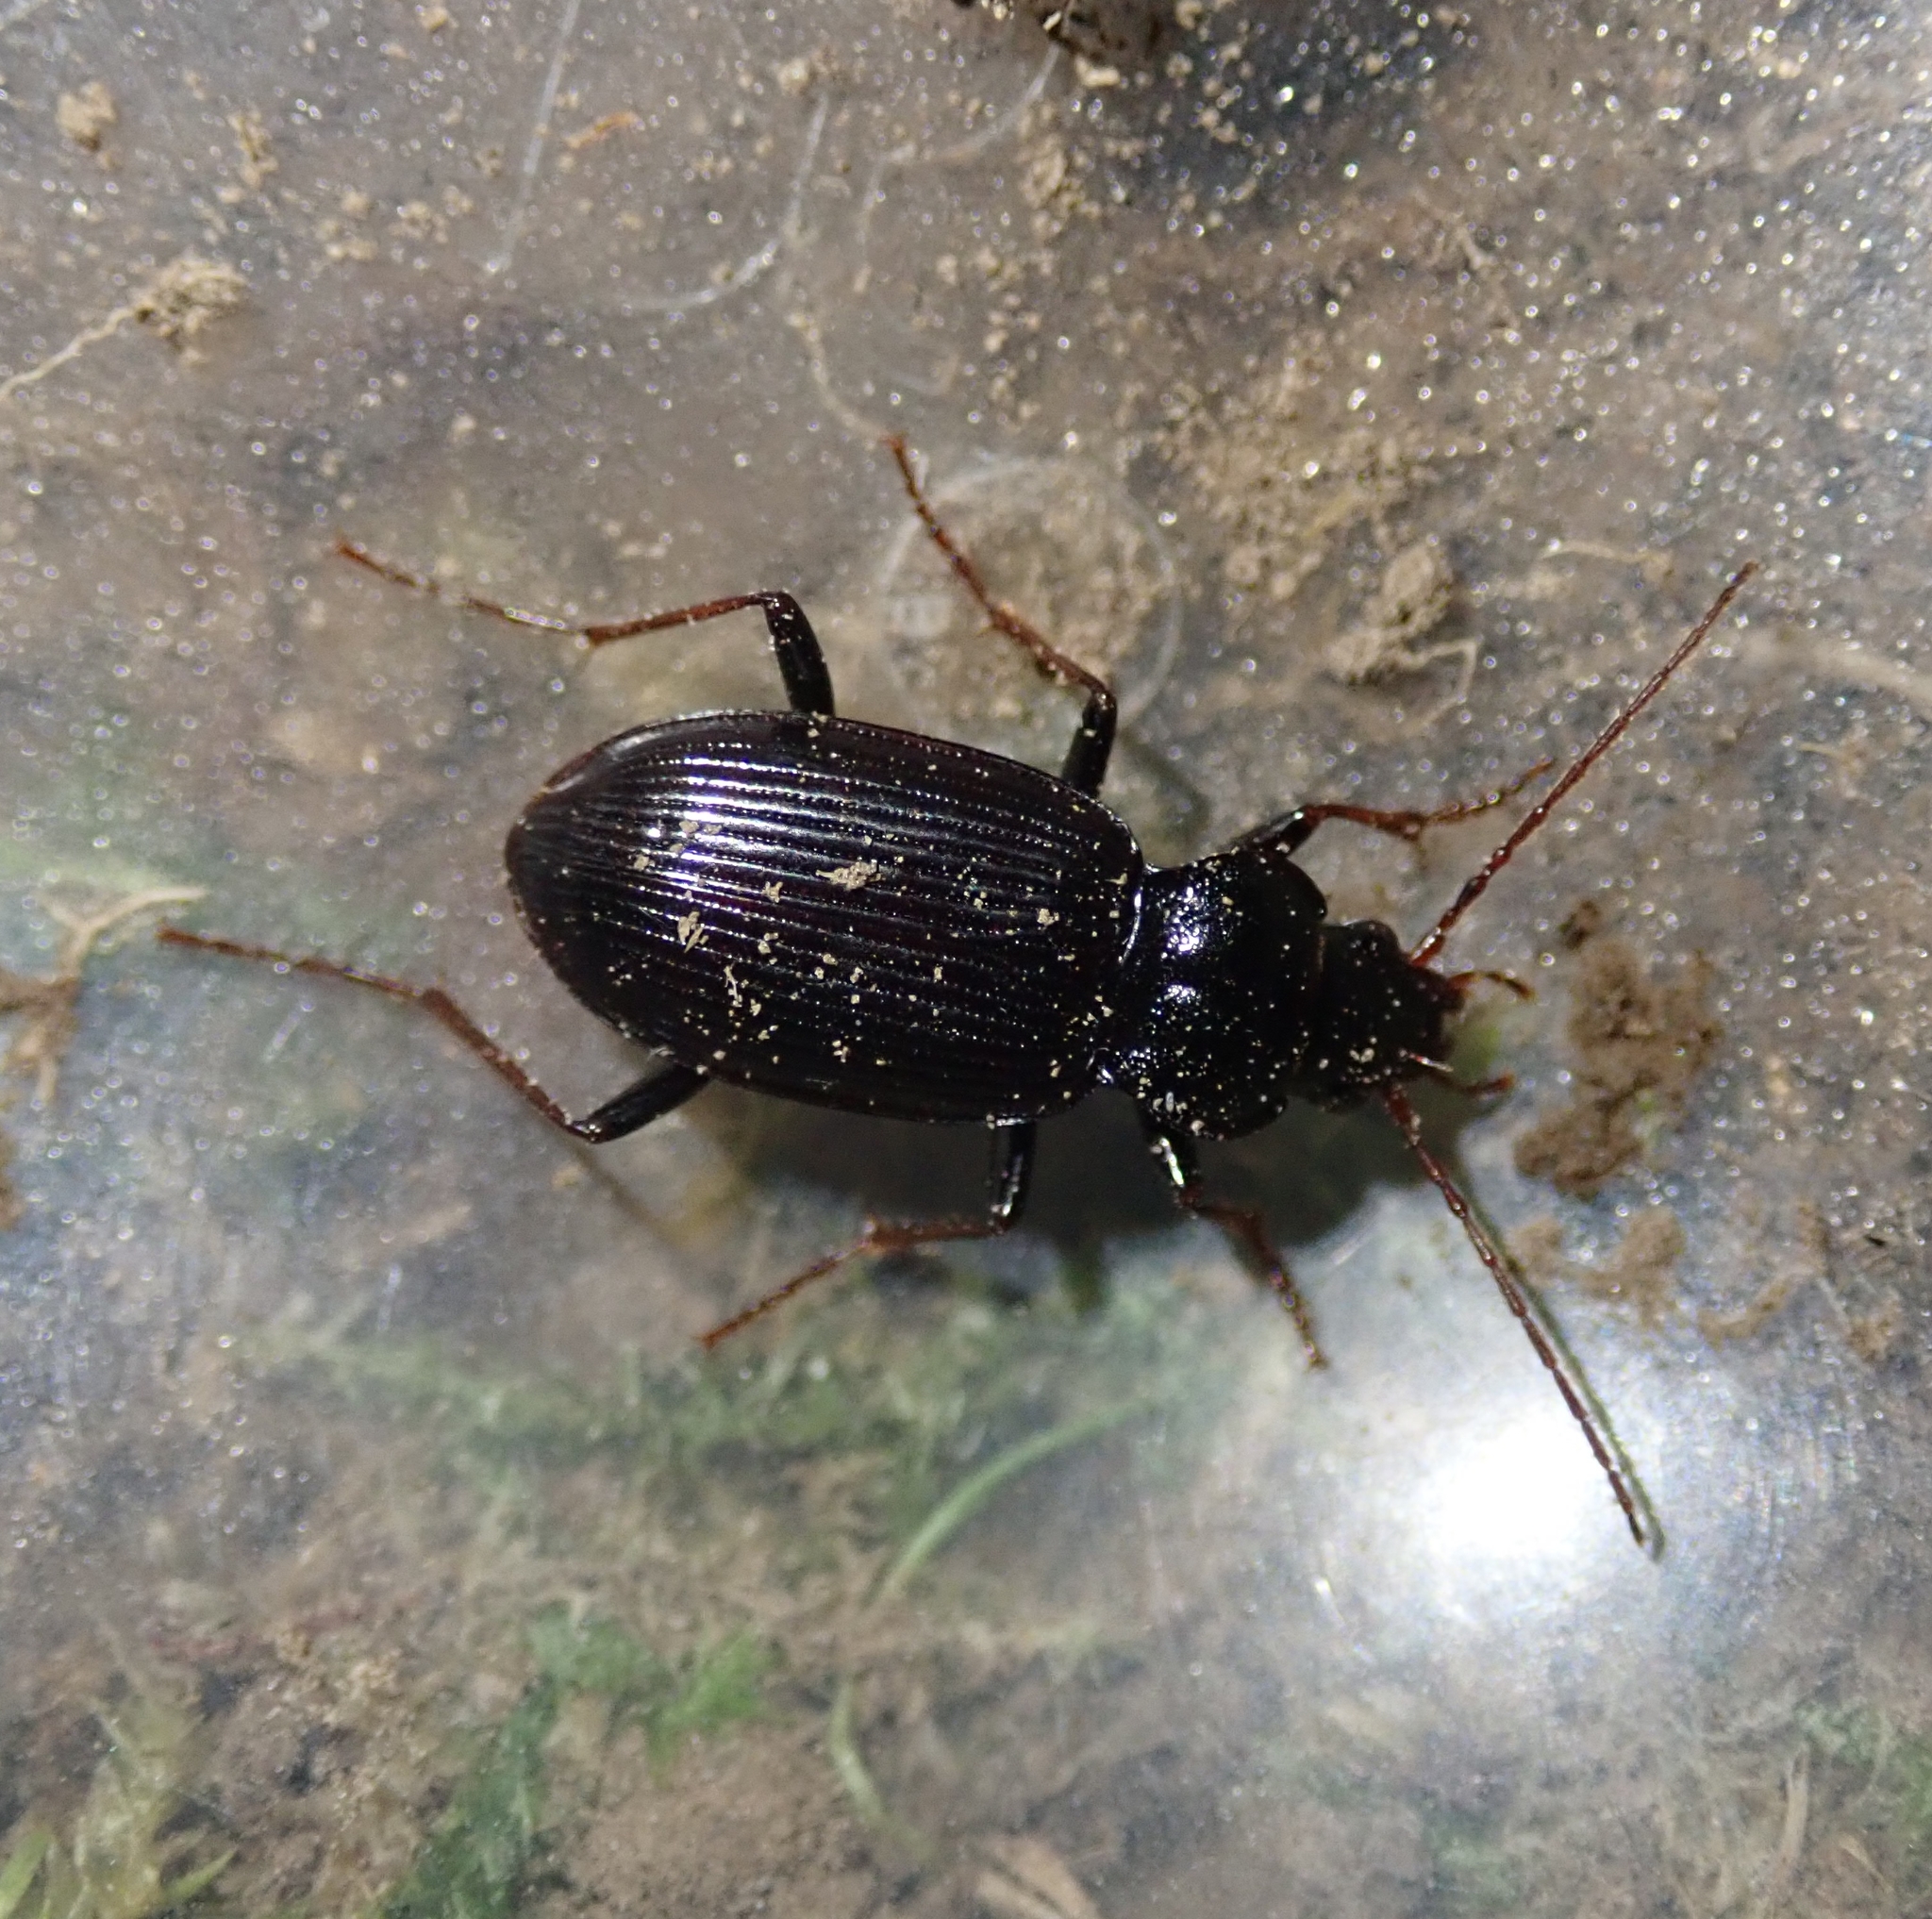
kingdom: Animalia
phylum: Arthropoda
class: Insecta
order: Coleoptera
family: Carabidae
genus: Nebria
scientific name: Nebria brevicollis
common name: Short-necked gazelle beetle
